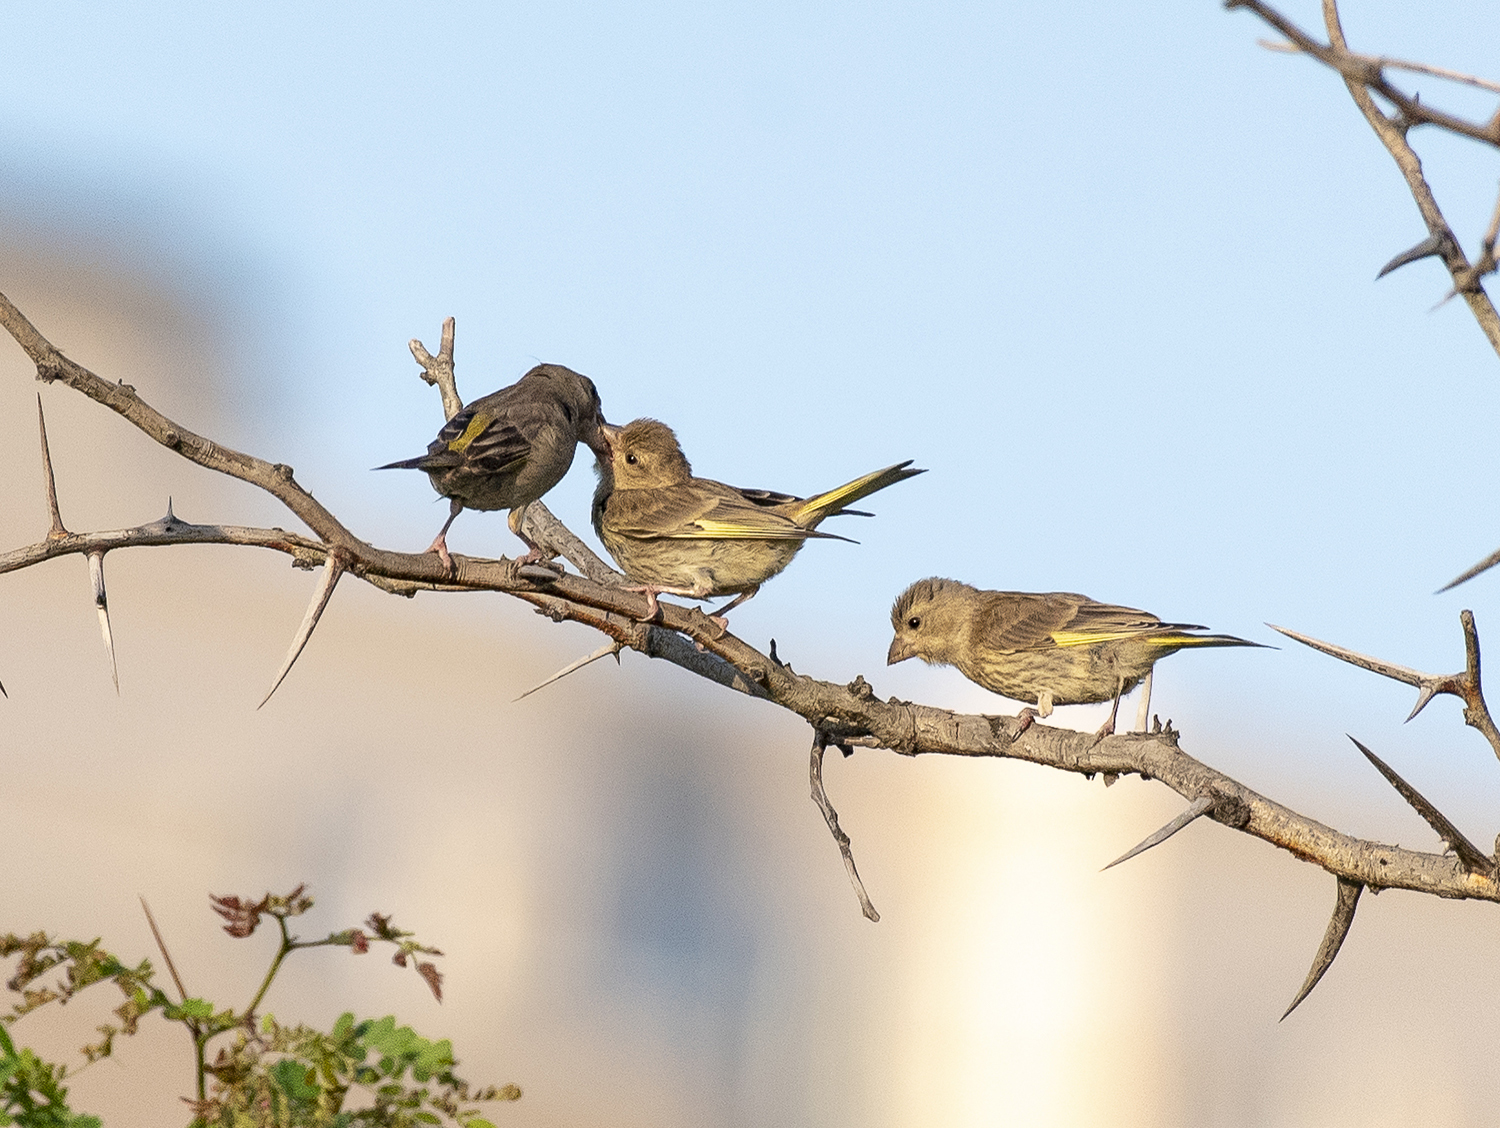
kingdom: Plantae
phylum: Tracheophyta
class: Liliopsida
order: Poales
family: Poaceae
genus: Chloris
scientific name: Chloris chloris
